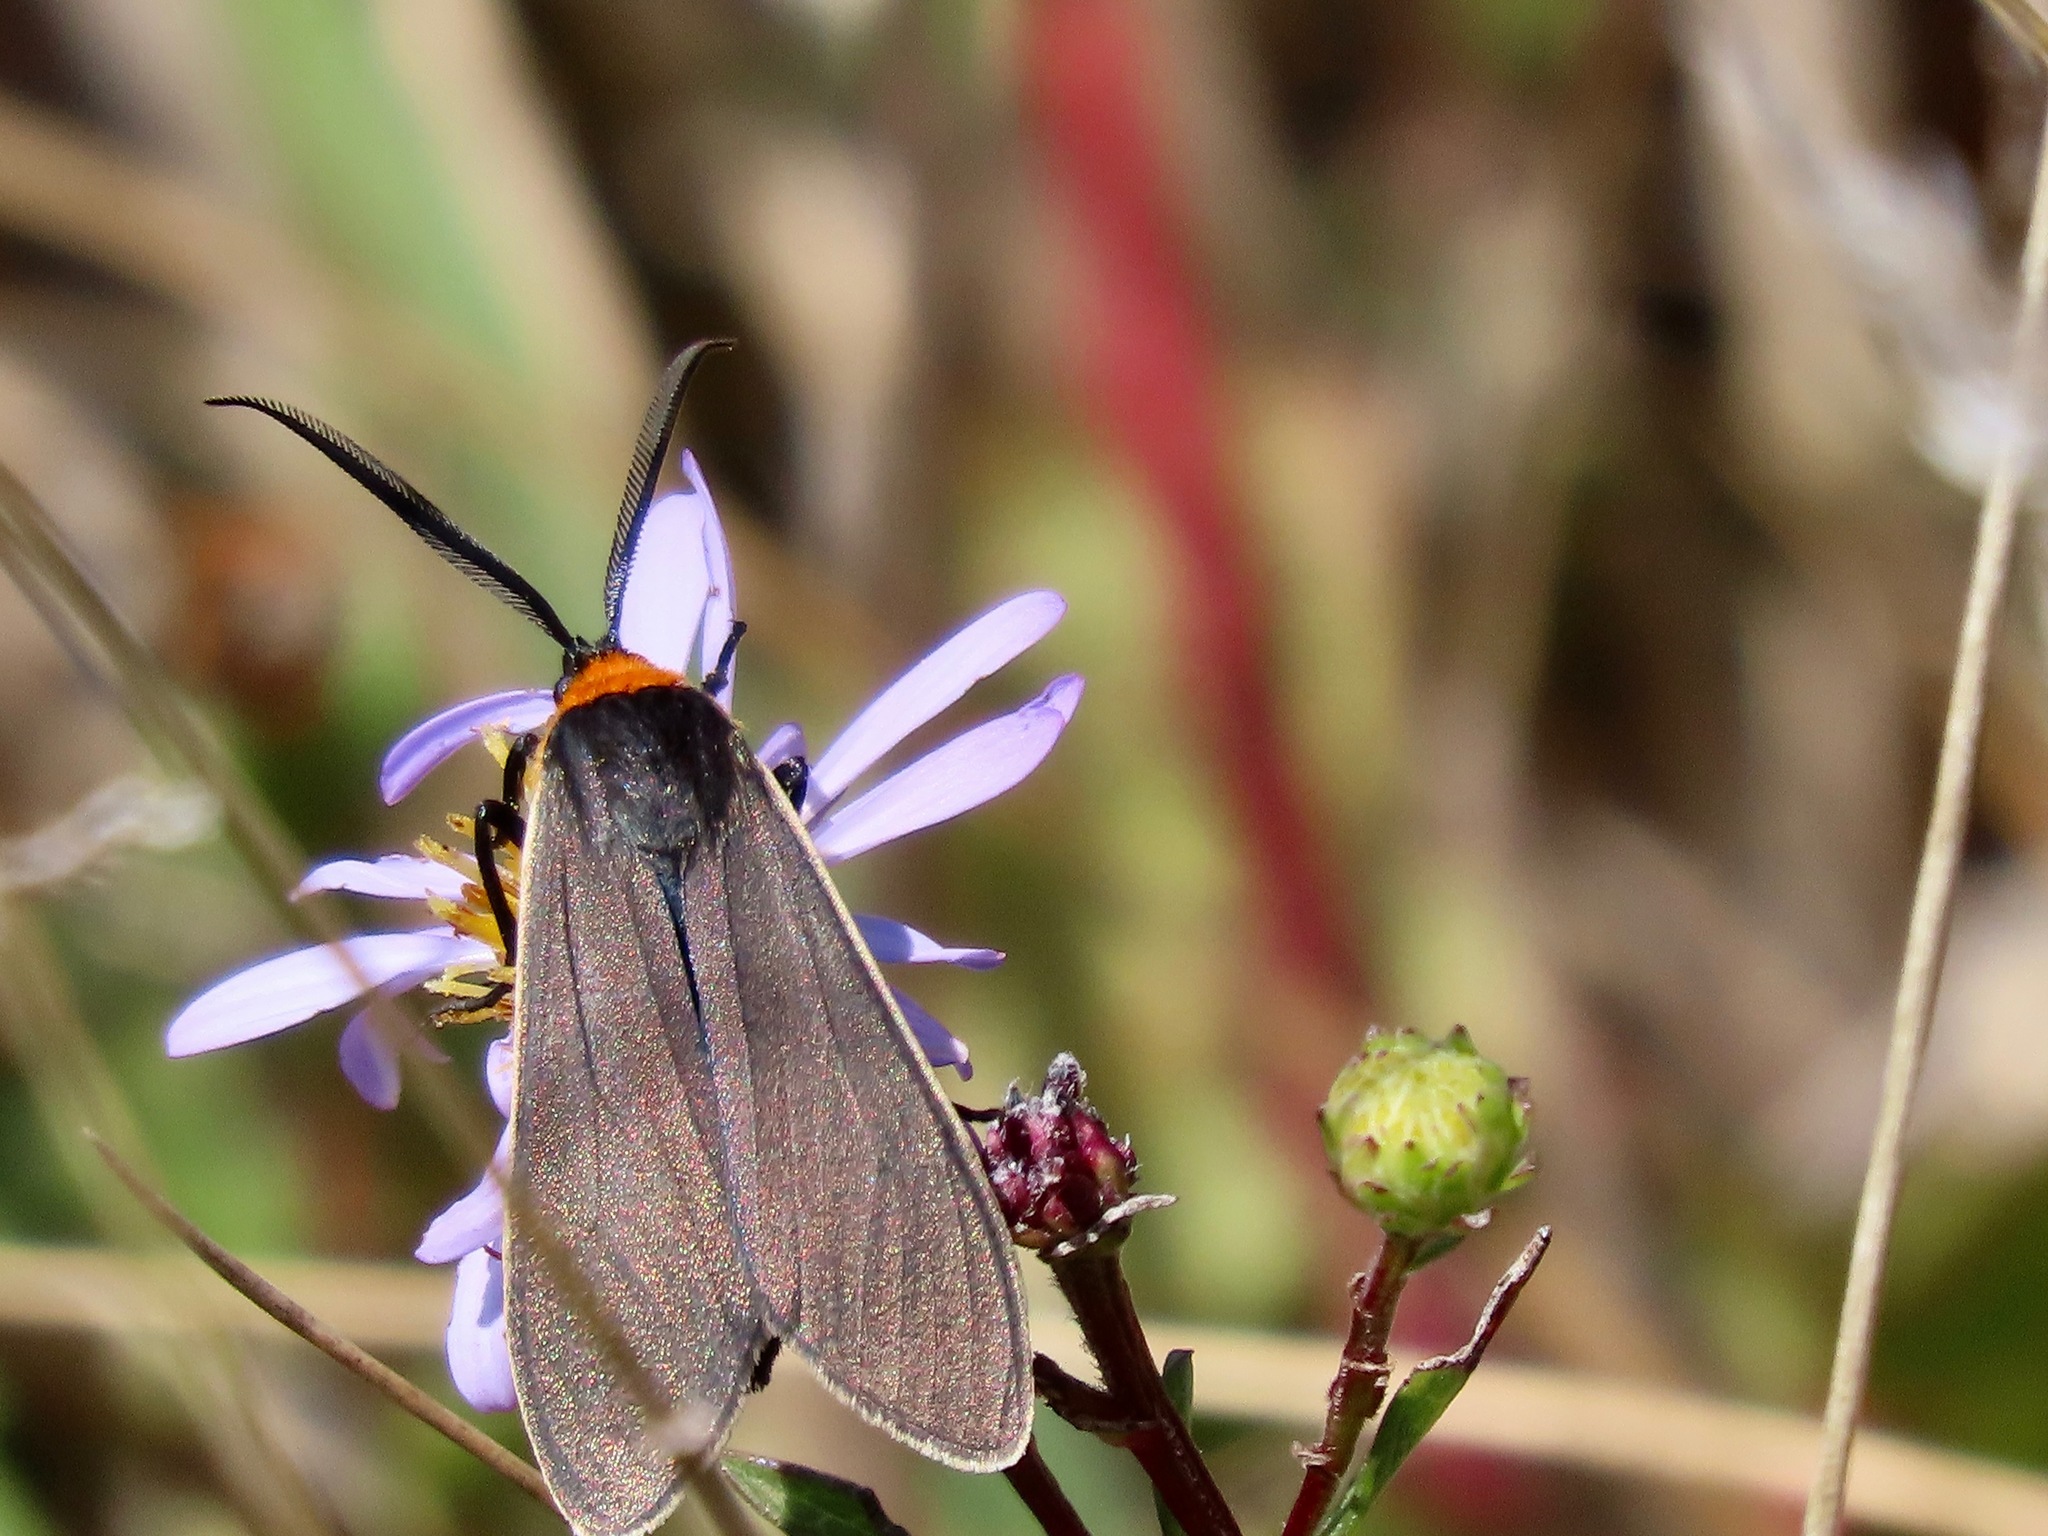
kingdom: Animalia
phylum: Arthropoda
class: Insecta
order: Lepidoptera
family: Erebidae
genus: Cisseps
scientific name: Cisseps fulvicollis
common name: Yellow-collared scape moth
